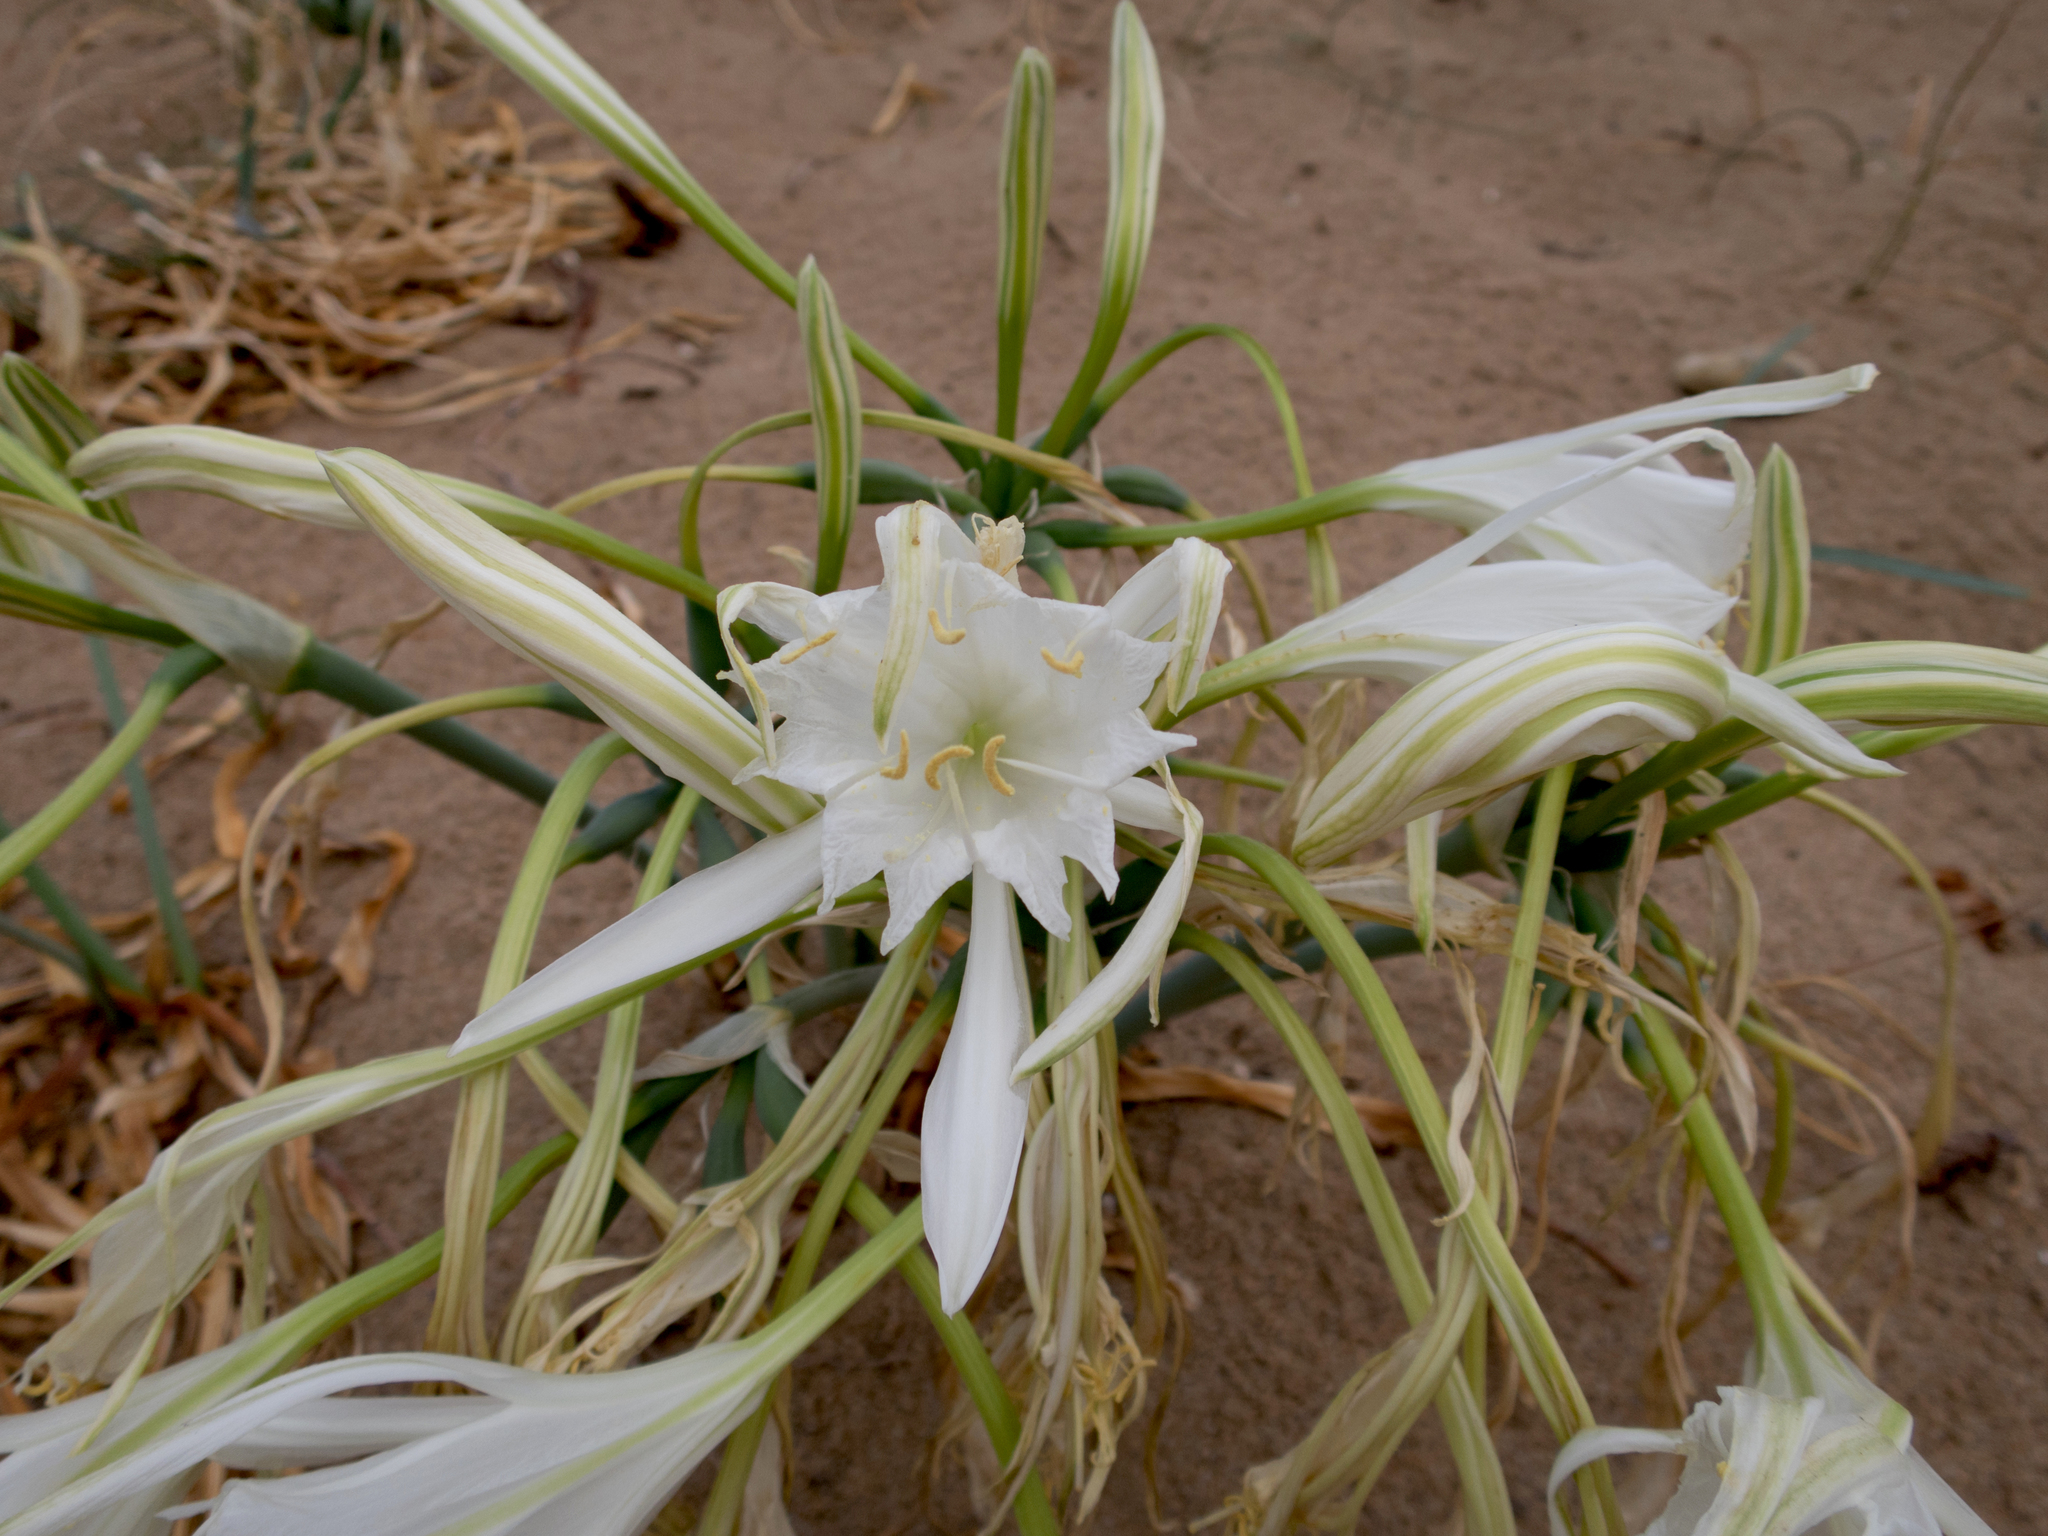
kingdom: Plantae
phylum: Tracheophyta
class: Liliopsida
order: Asparagales
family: Amaryllidaceae
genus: Pancratium
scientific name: Pancratium maritimum
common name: Sea-daffodil
